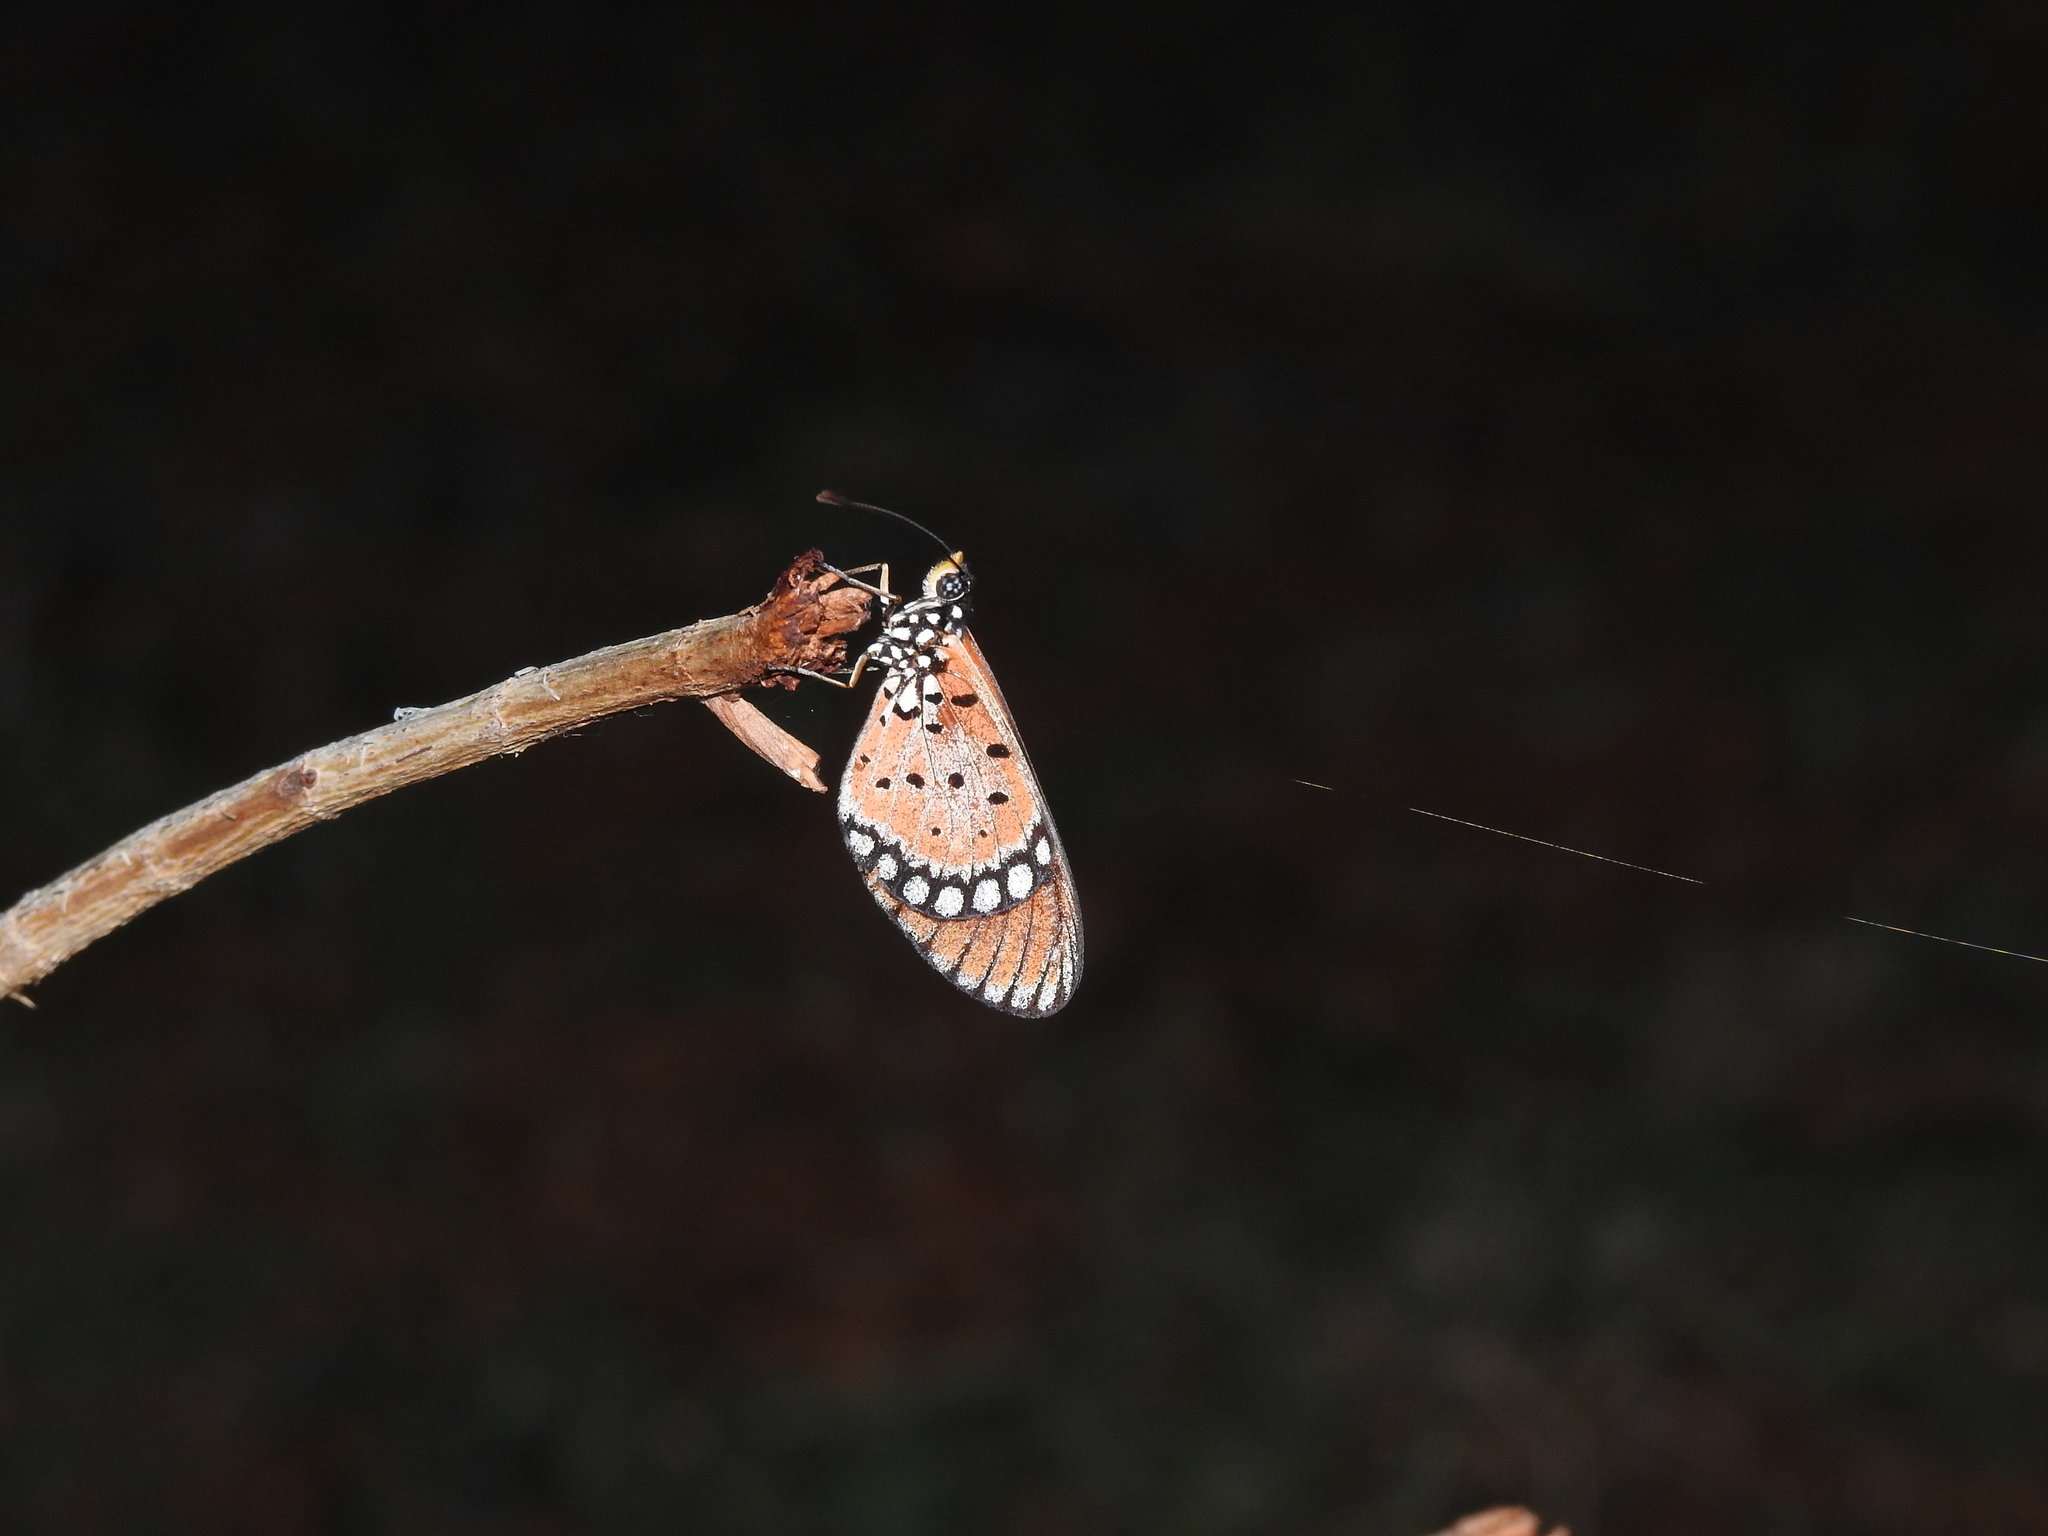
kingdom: Animalia
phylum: Arthropoda
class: Insecta
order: Lepidoptera
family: Nymphalidae
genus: Acraea
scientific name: Acraea terpsicore
